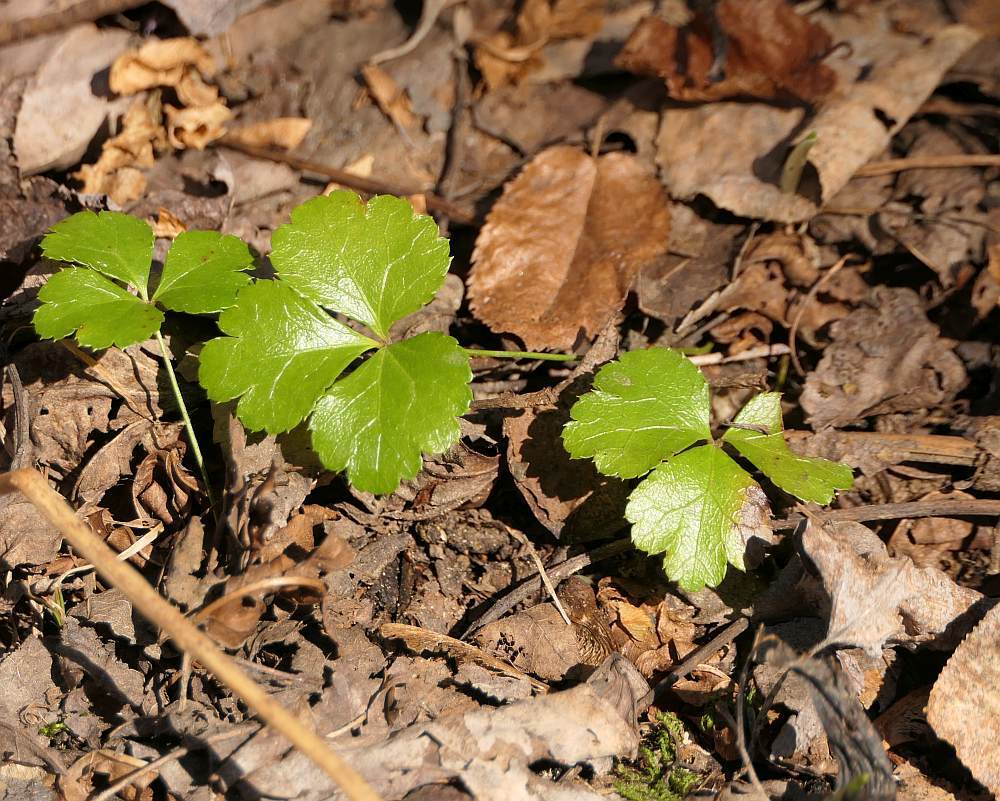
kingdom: Plantae
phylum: Tracheophyta
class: Magnoliopsida
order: Ranunculales
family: Ranunculaceae
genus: Coptis
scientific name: Coptis trifolia
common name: Canker-root
